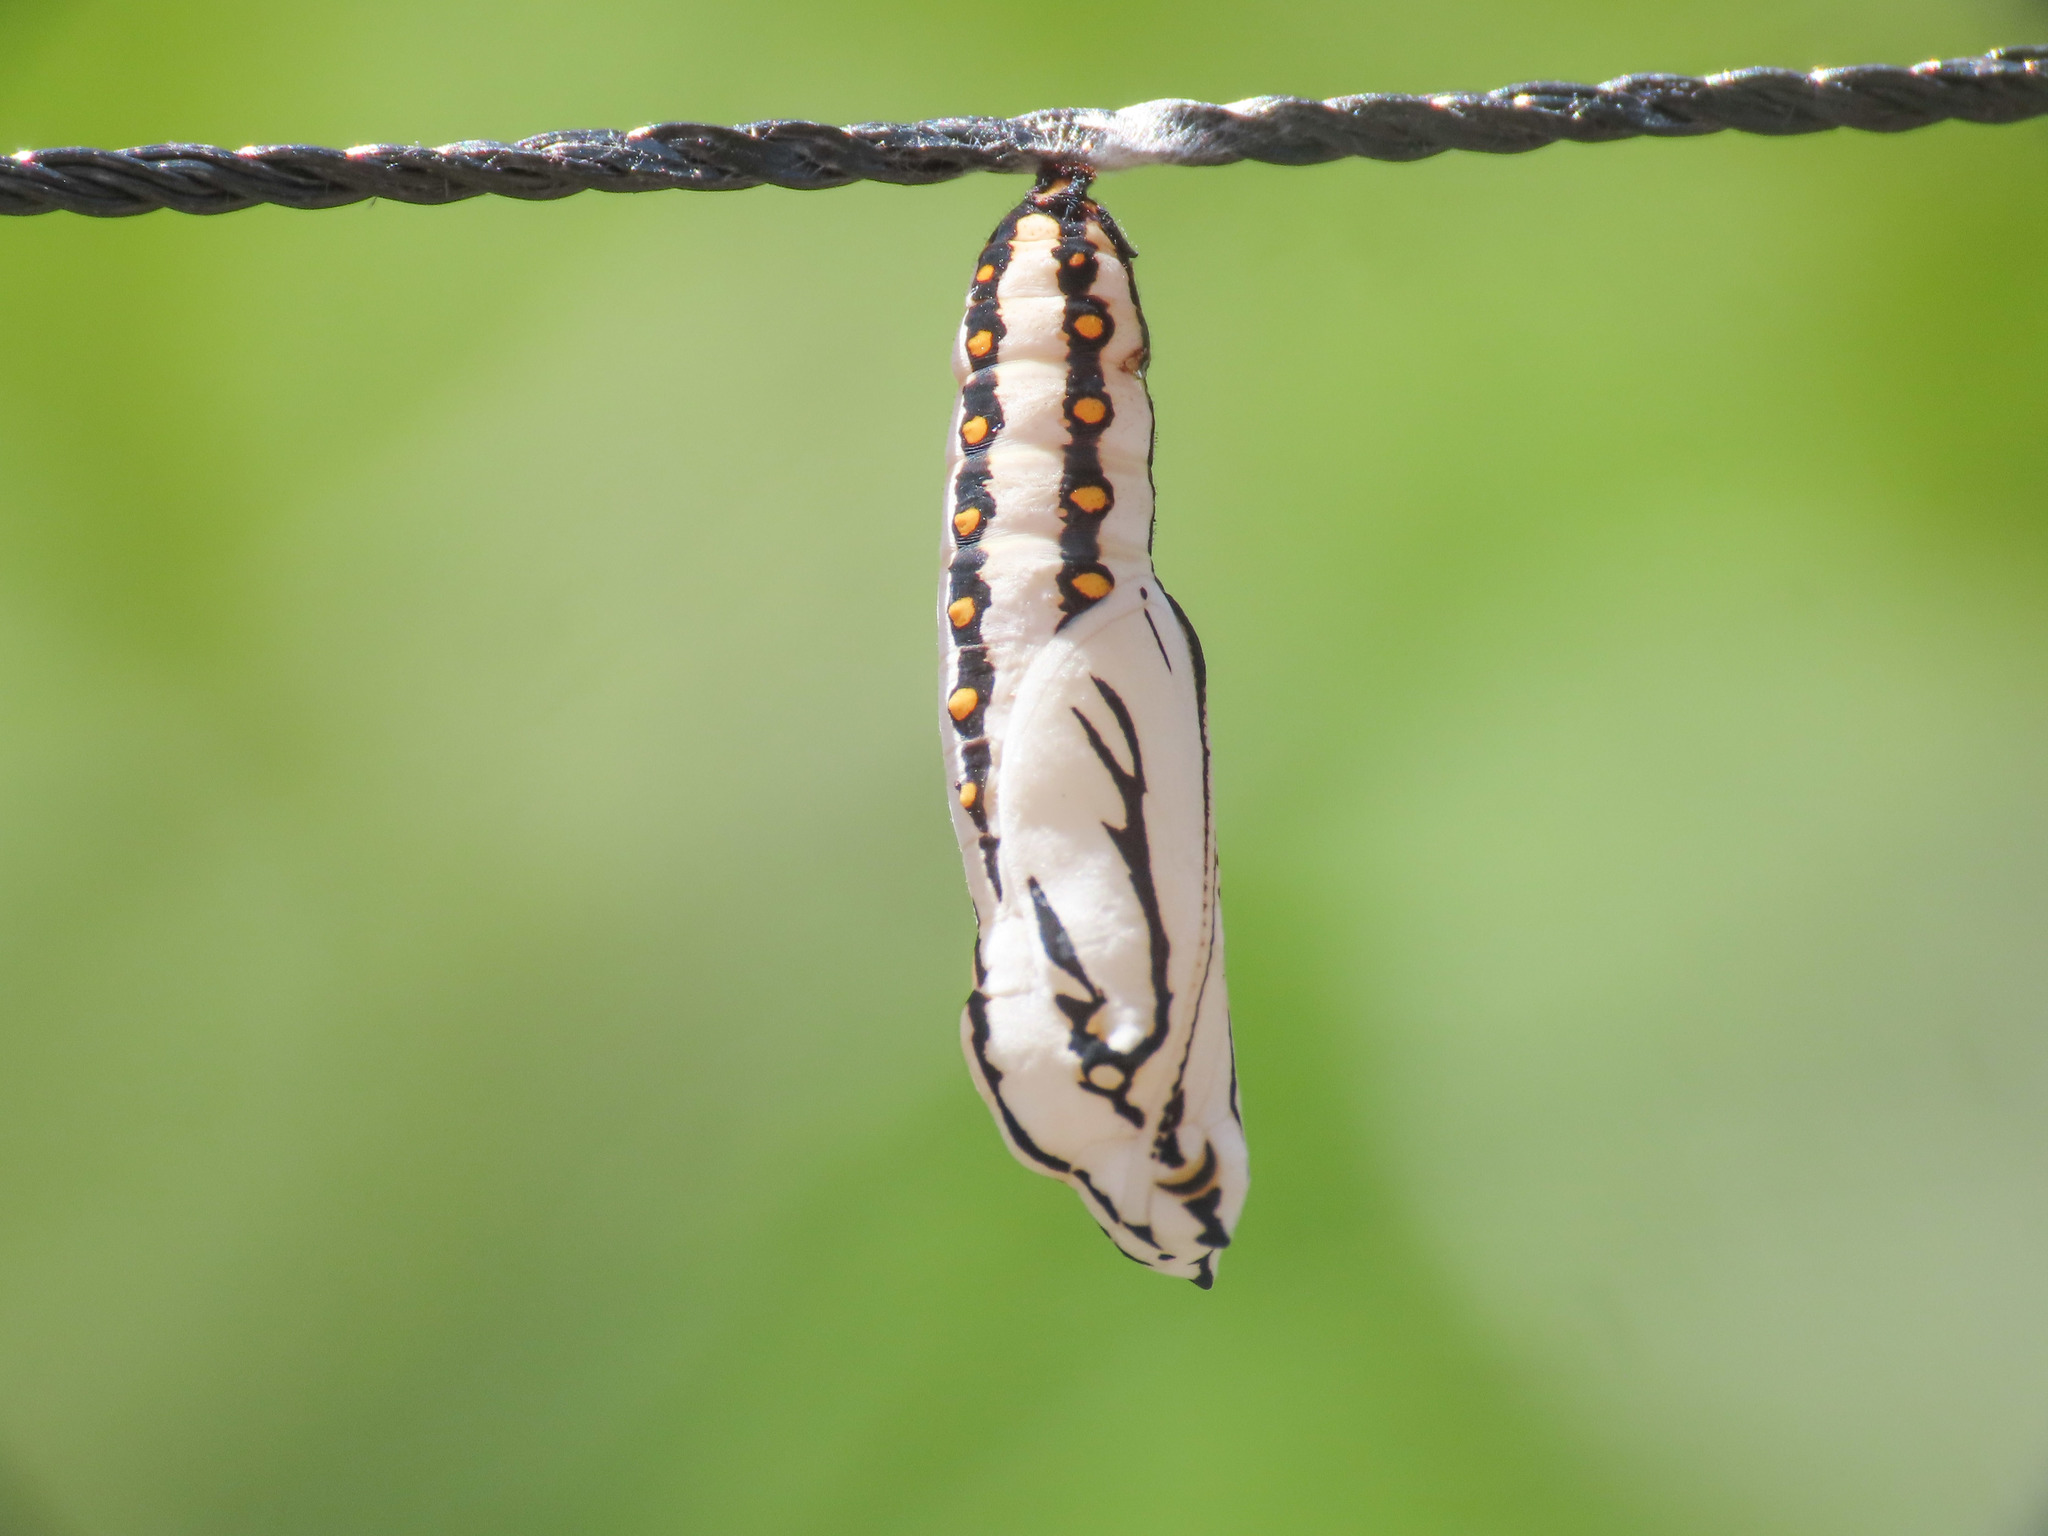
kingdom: Animalia
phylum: Arthropoda
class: Insecta
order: Lepidoptera
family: Nymphalidae
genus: Acraea
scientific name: Acraea terpsicore
